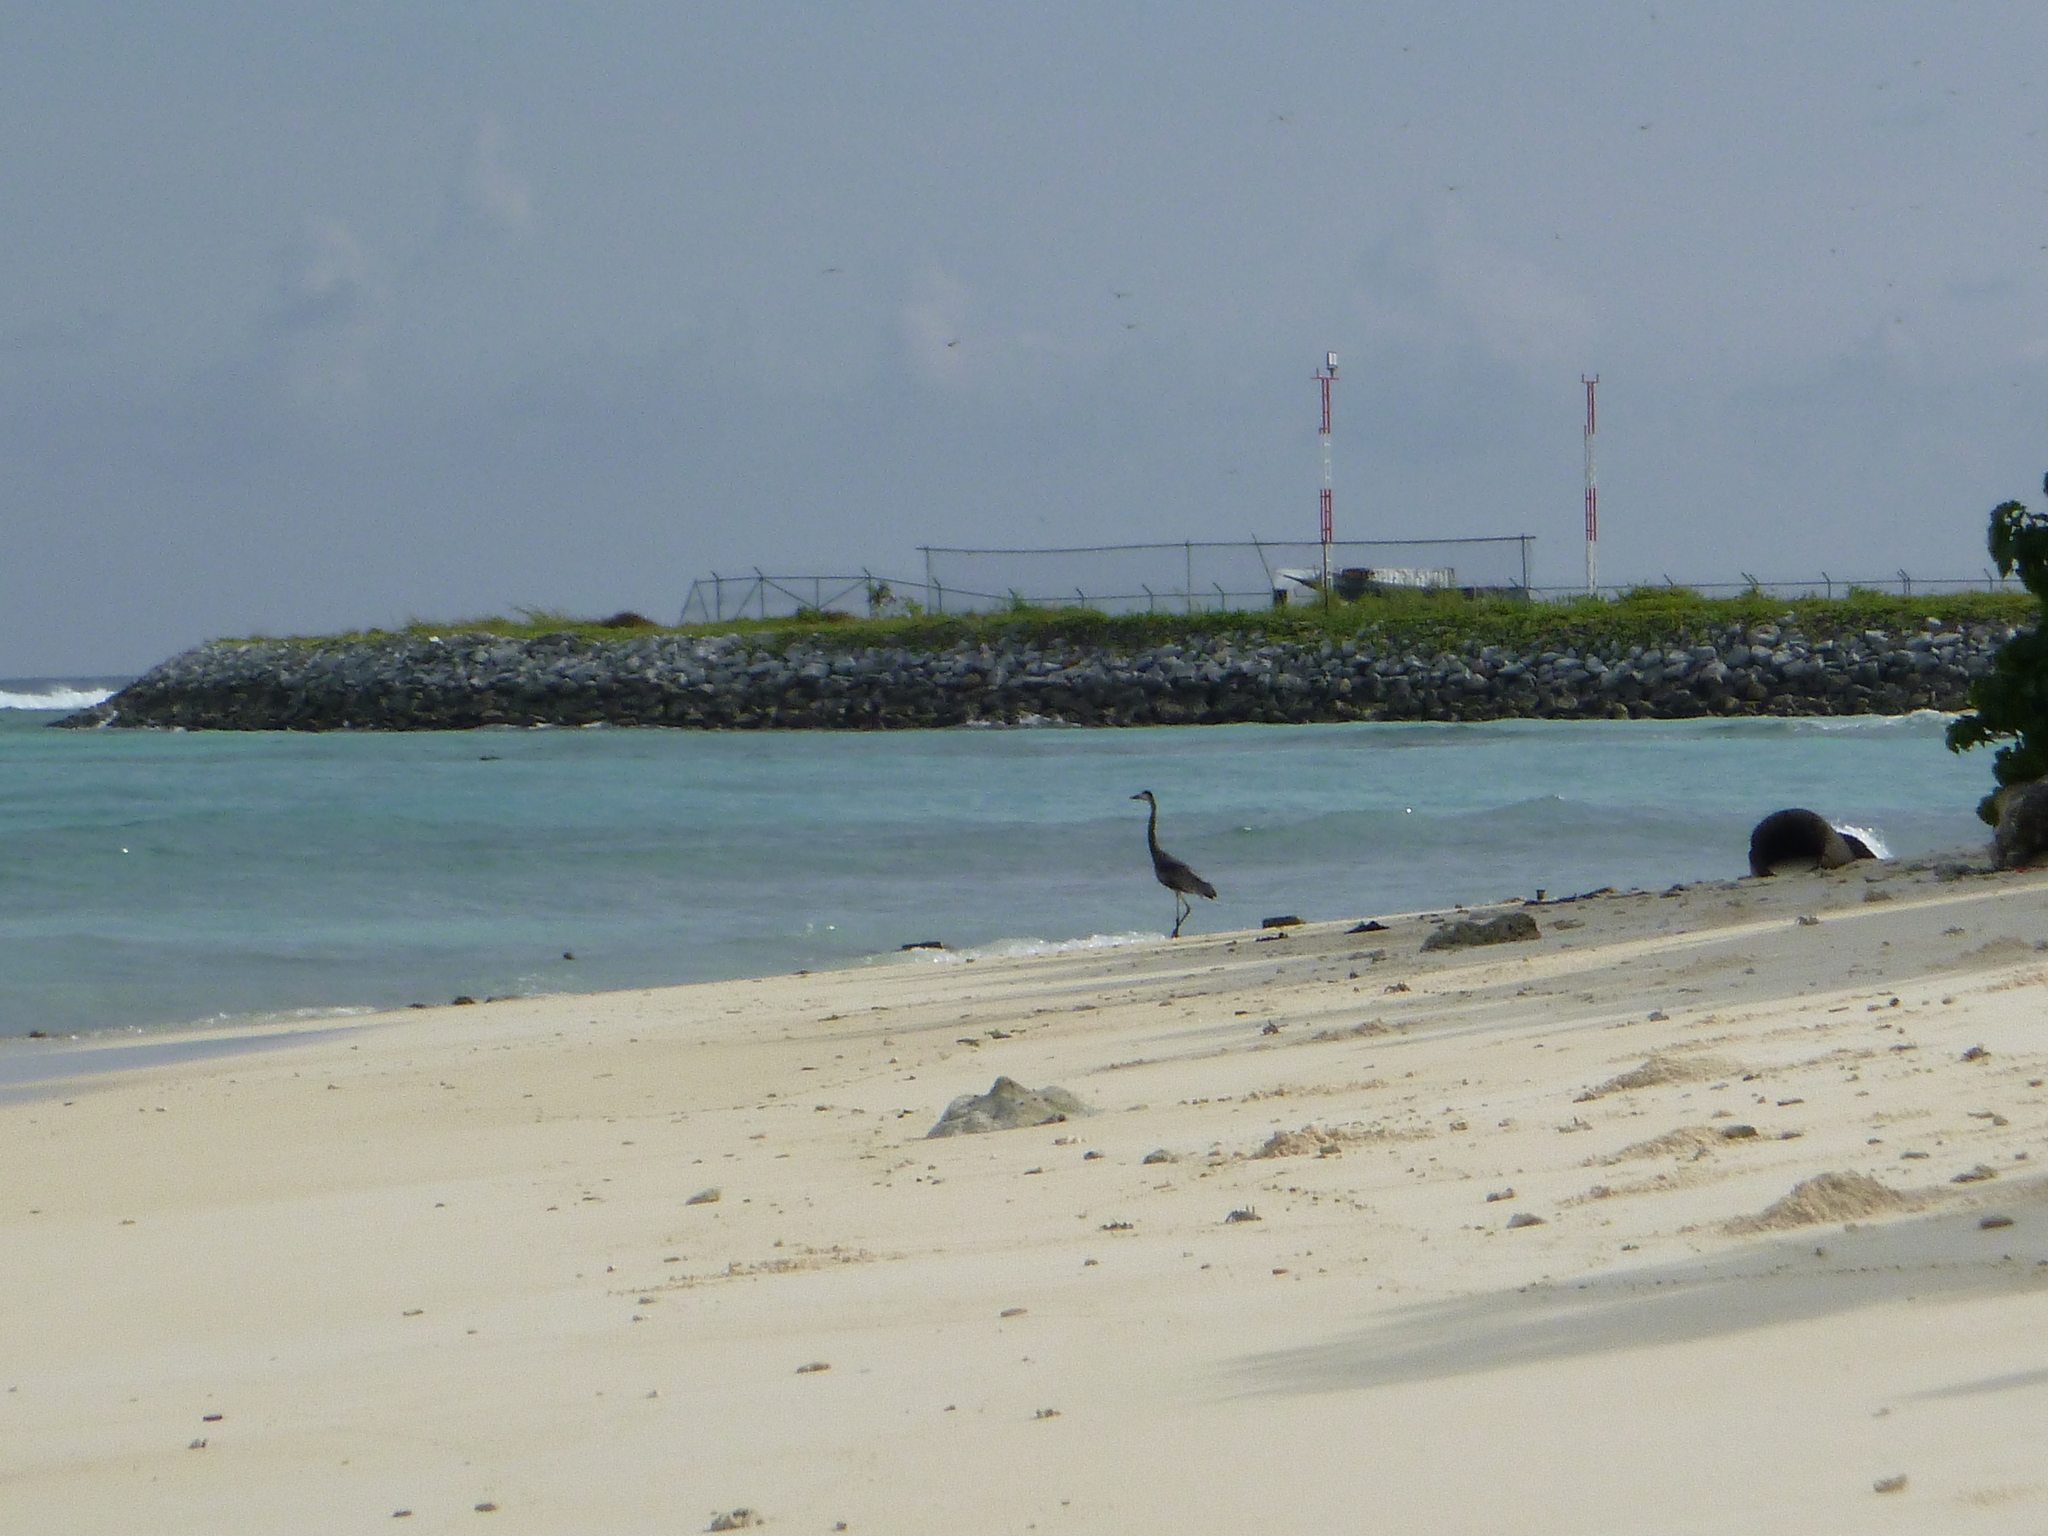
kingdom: Animalia
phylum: Chordata
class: Aves
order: Pelecaniformes
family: Ardeidae
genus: Ardea
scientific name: Ardea cinerea
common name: Grey heron
